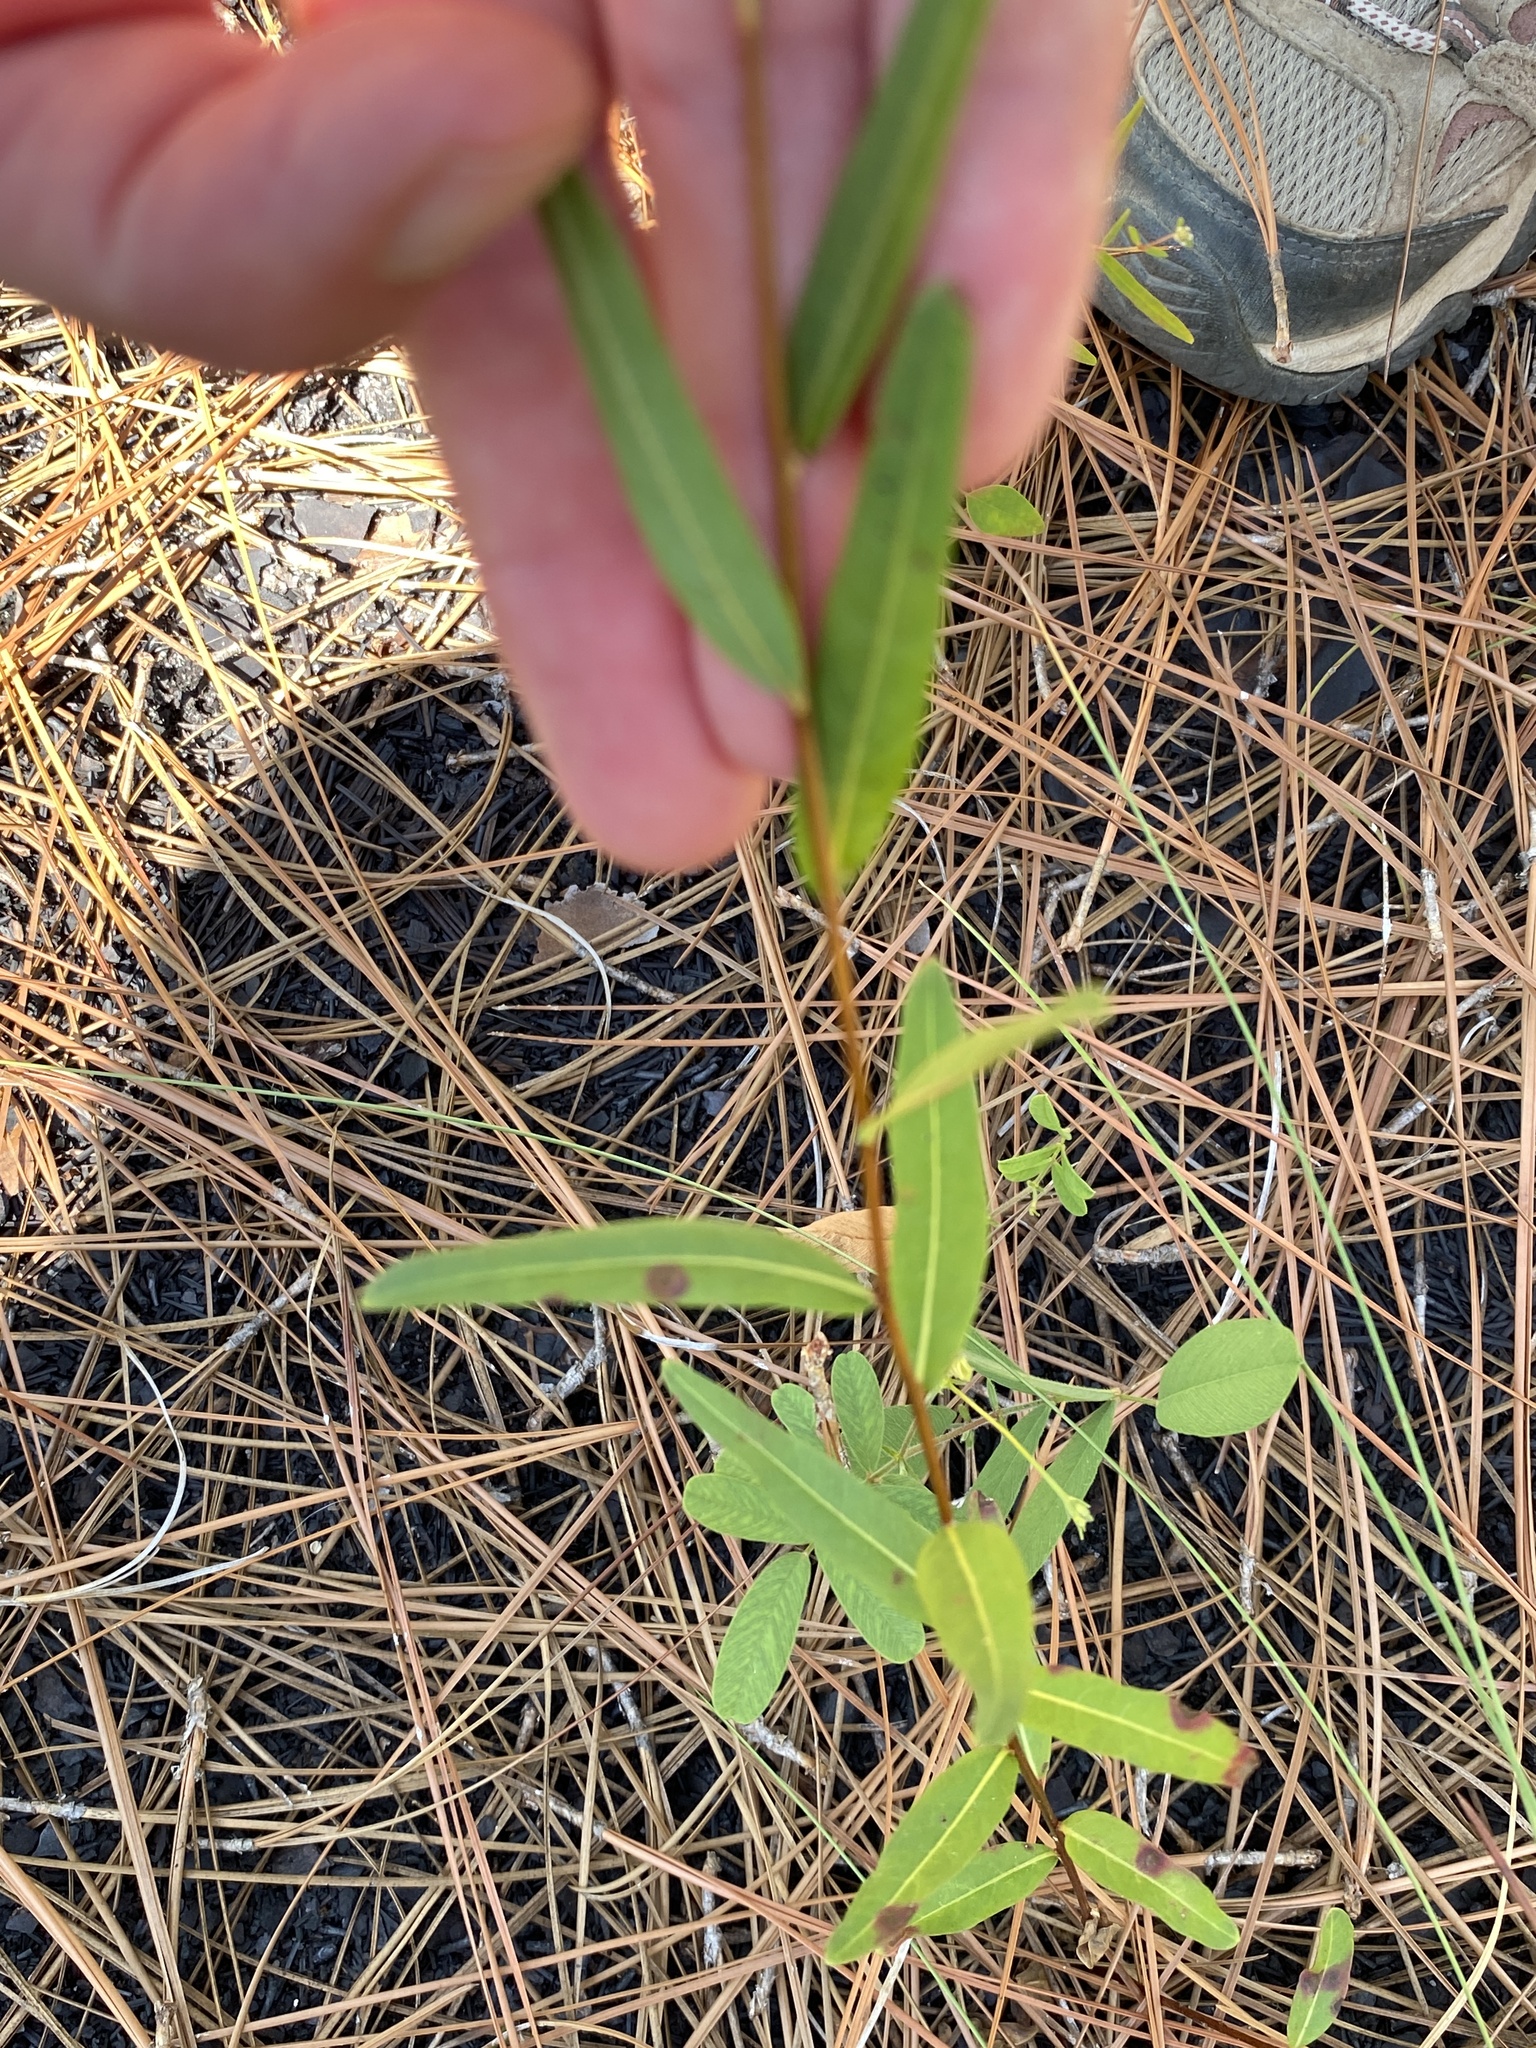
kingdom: Plantae
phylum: Tracheophyta
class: Magnoliopsida
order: Myrtales
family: Onagraceae
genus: Ludwigia
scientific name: Ludwigia virgata
